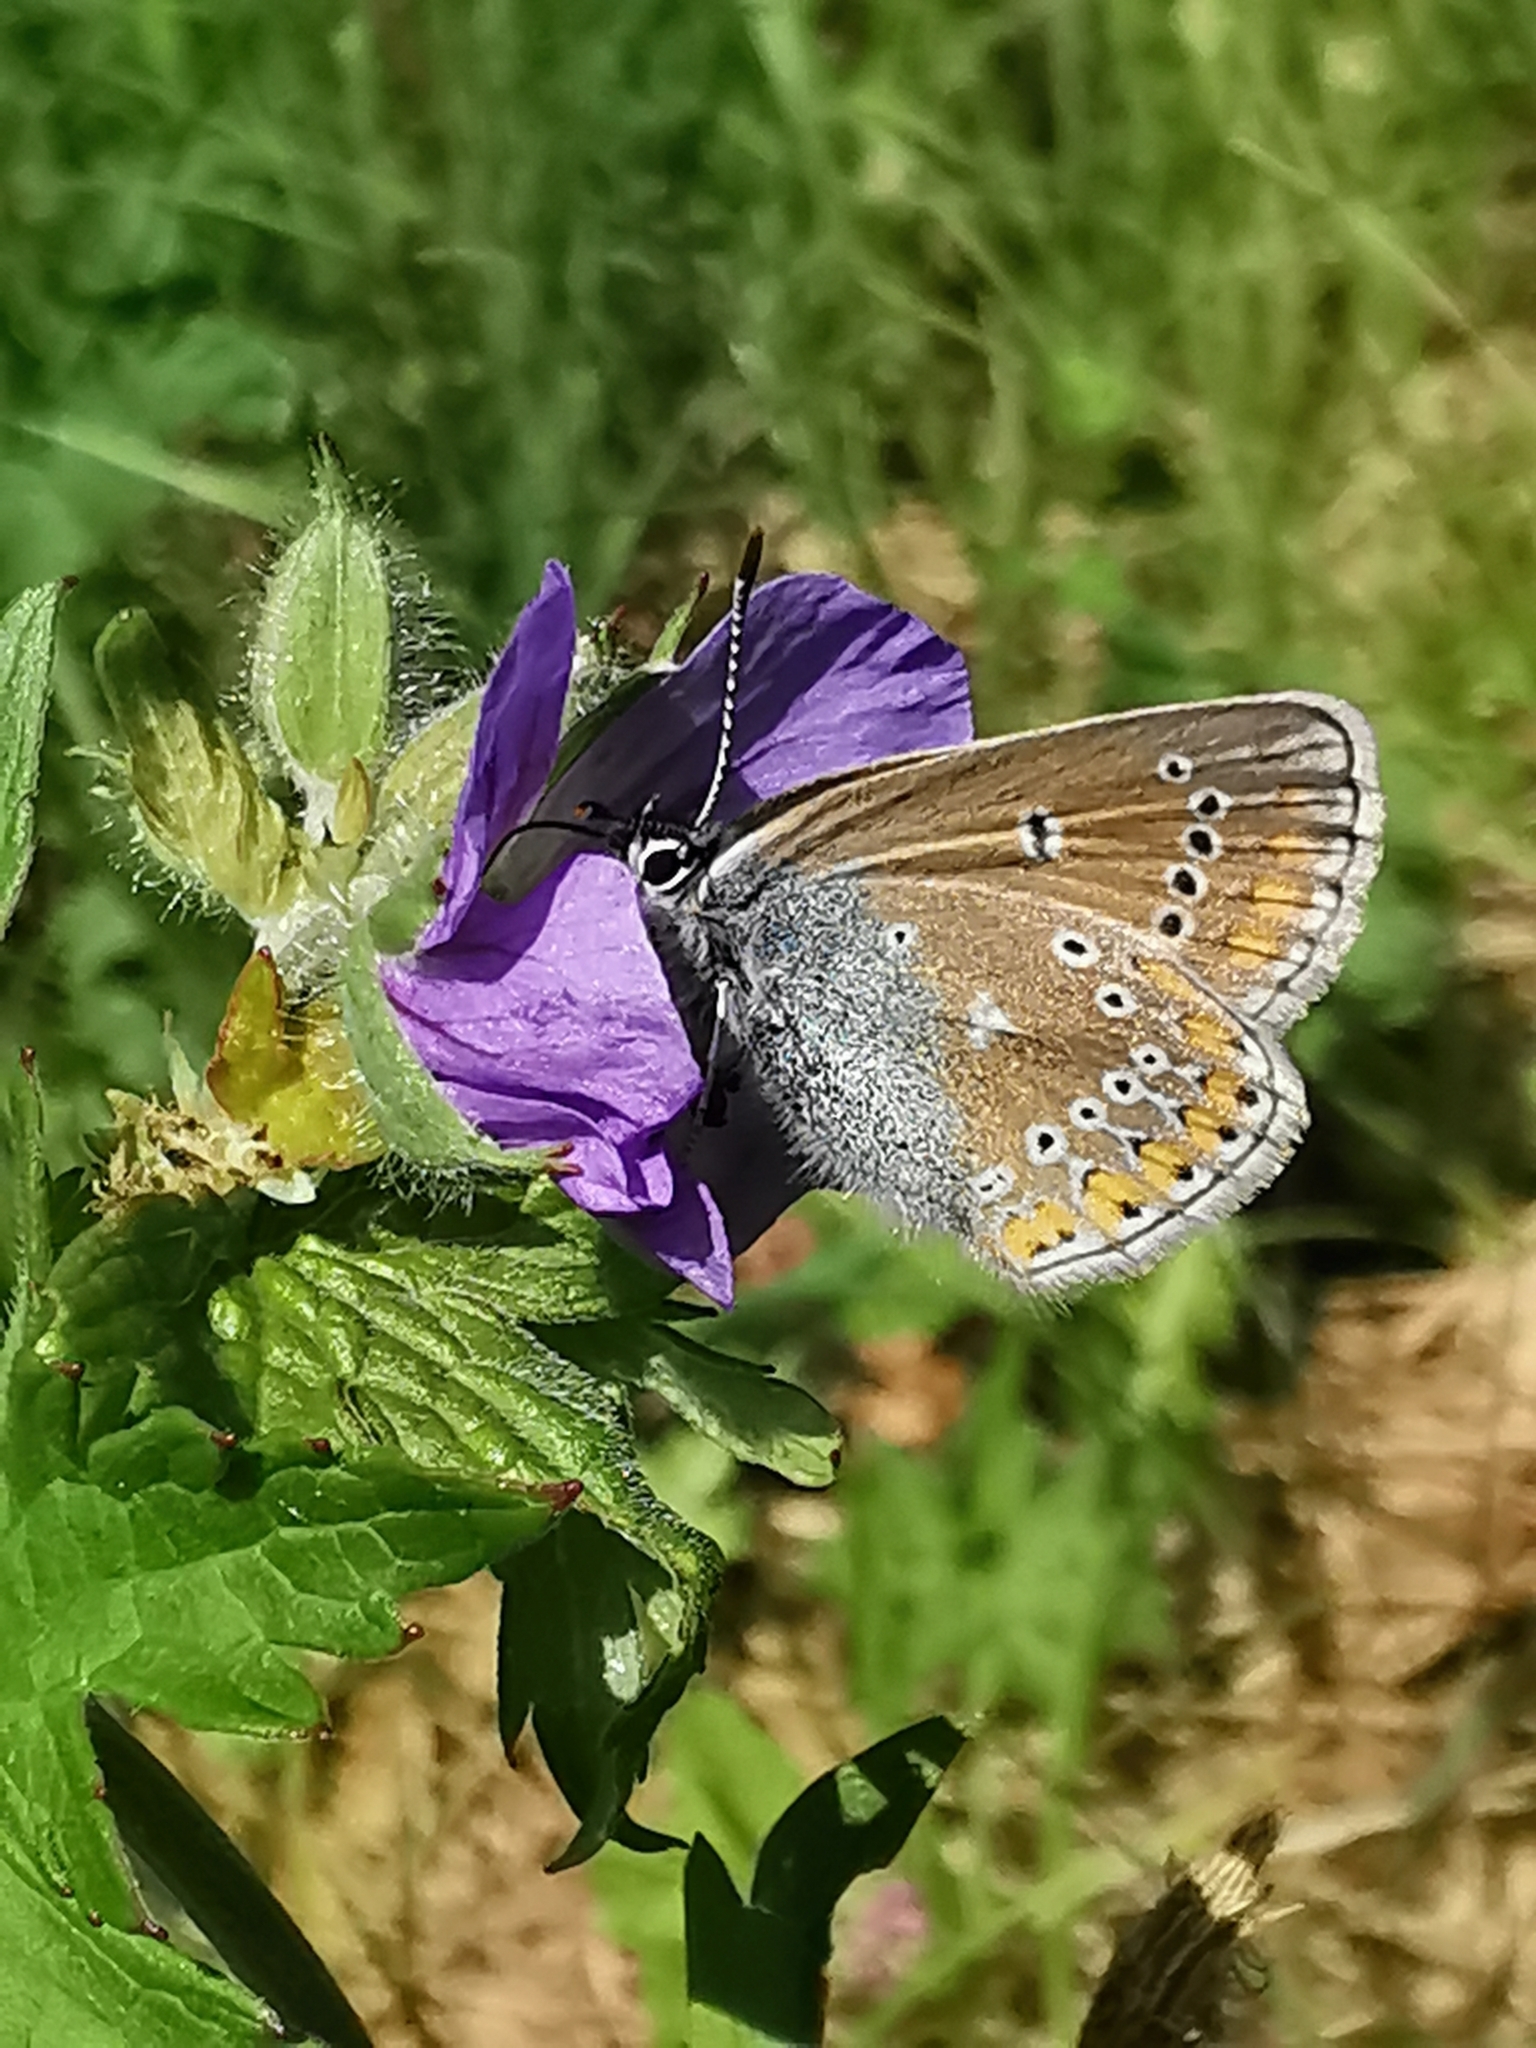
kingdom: Animalia
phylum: Arthropoda
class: Insecta
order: Lepidoptera
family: Lycaenidae
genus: Eumedonia
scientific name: Eumedonia eumedon
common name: Geranium argus
